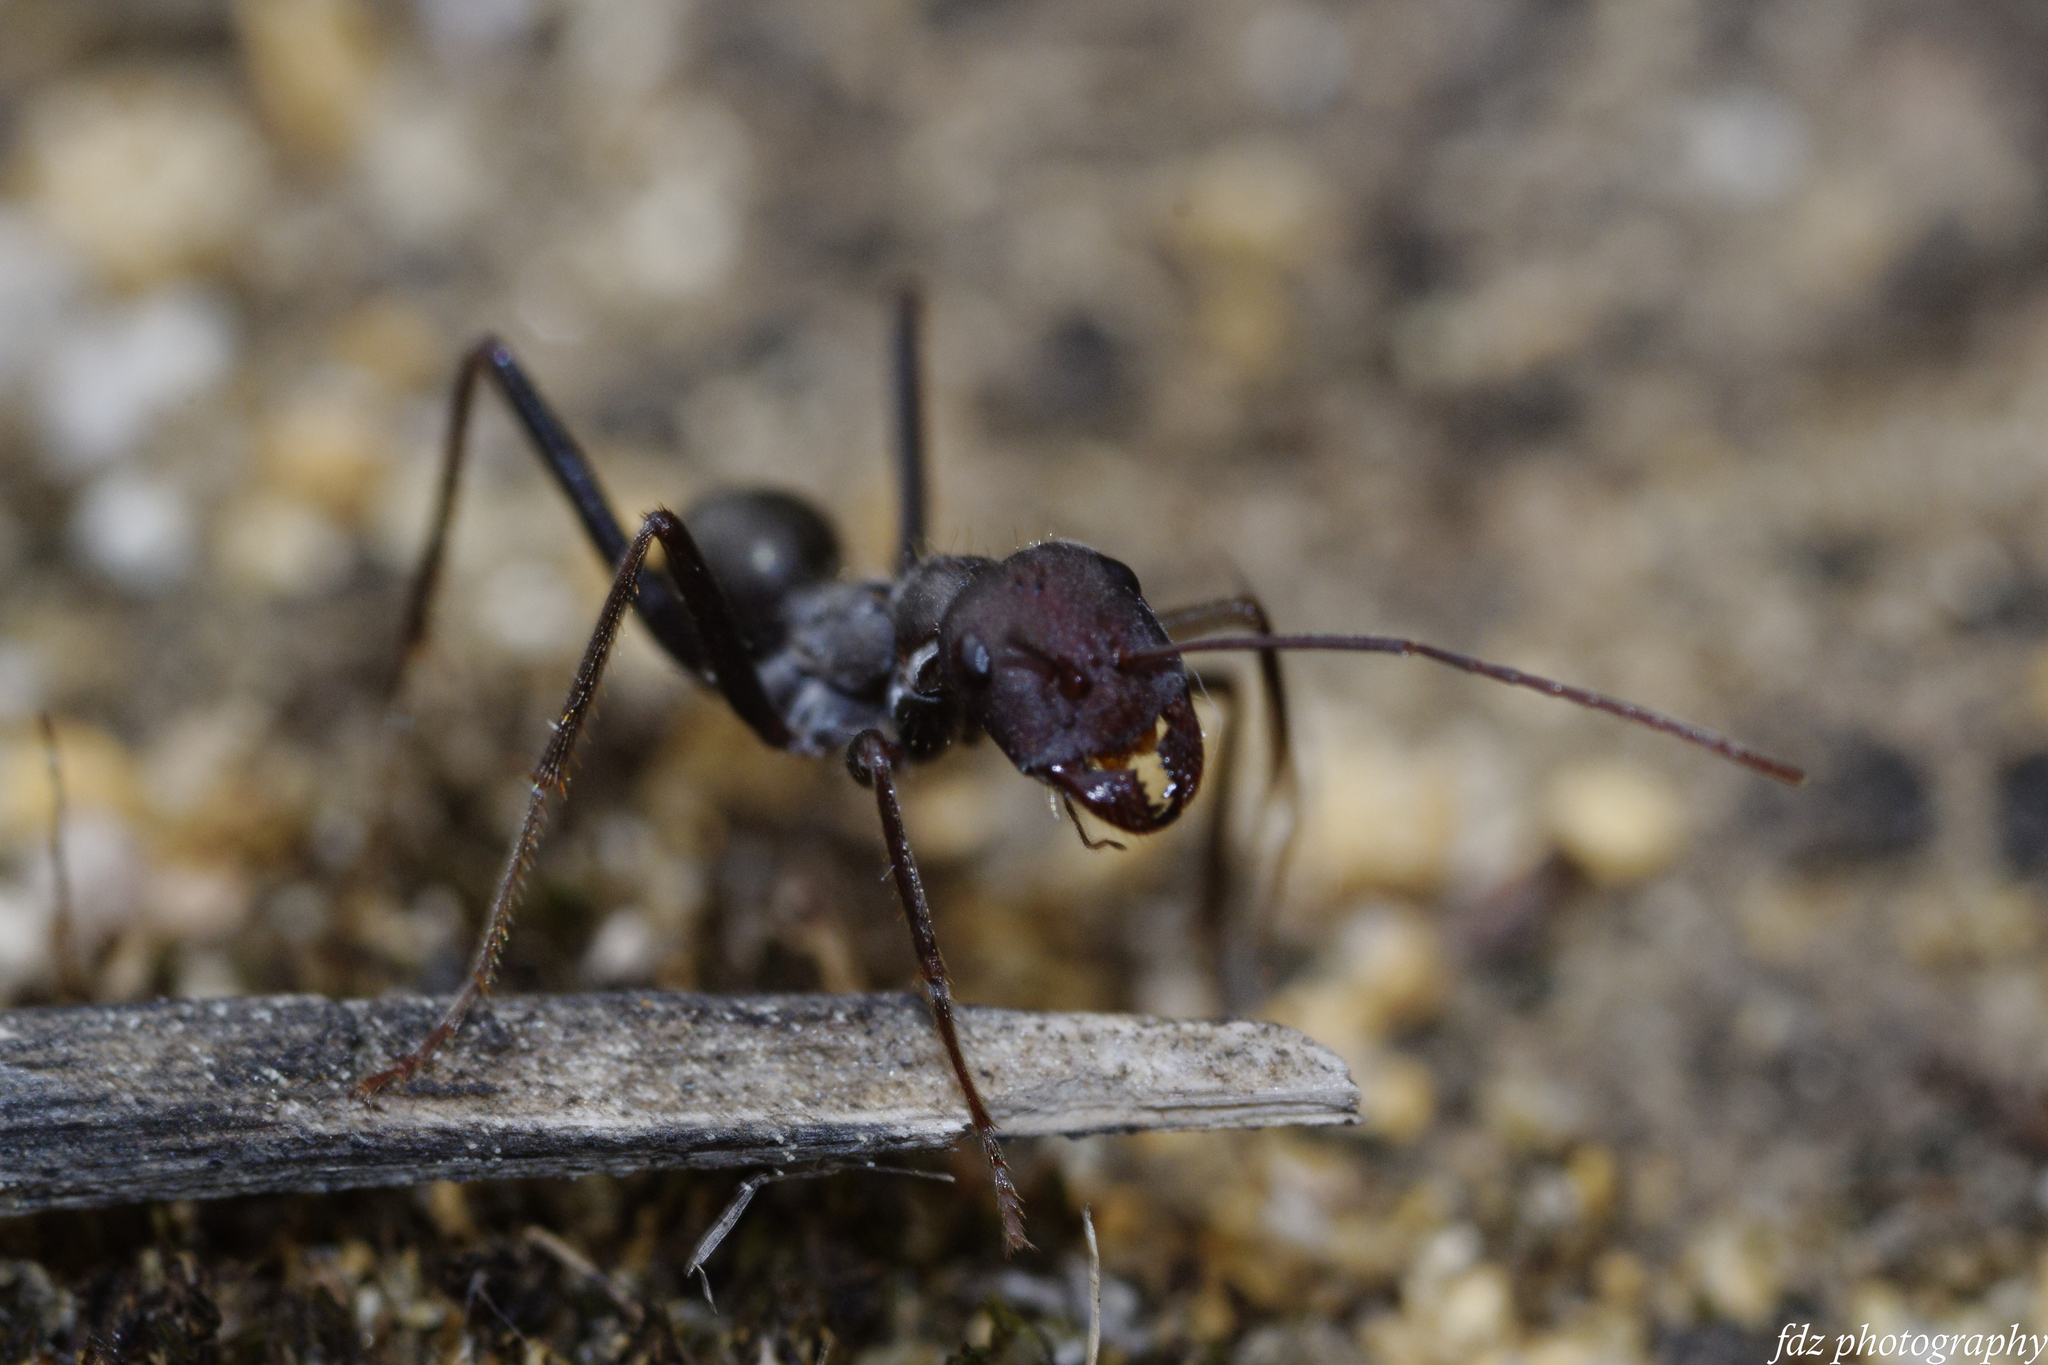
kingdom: Animalia
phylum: Arthropoda
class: Insecta
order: Hymenoptera
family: Formicidae
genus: Cataglyphis
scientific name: Cataglyphis hispanicus
